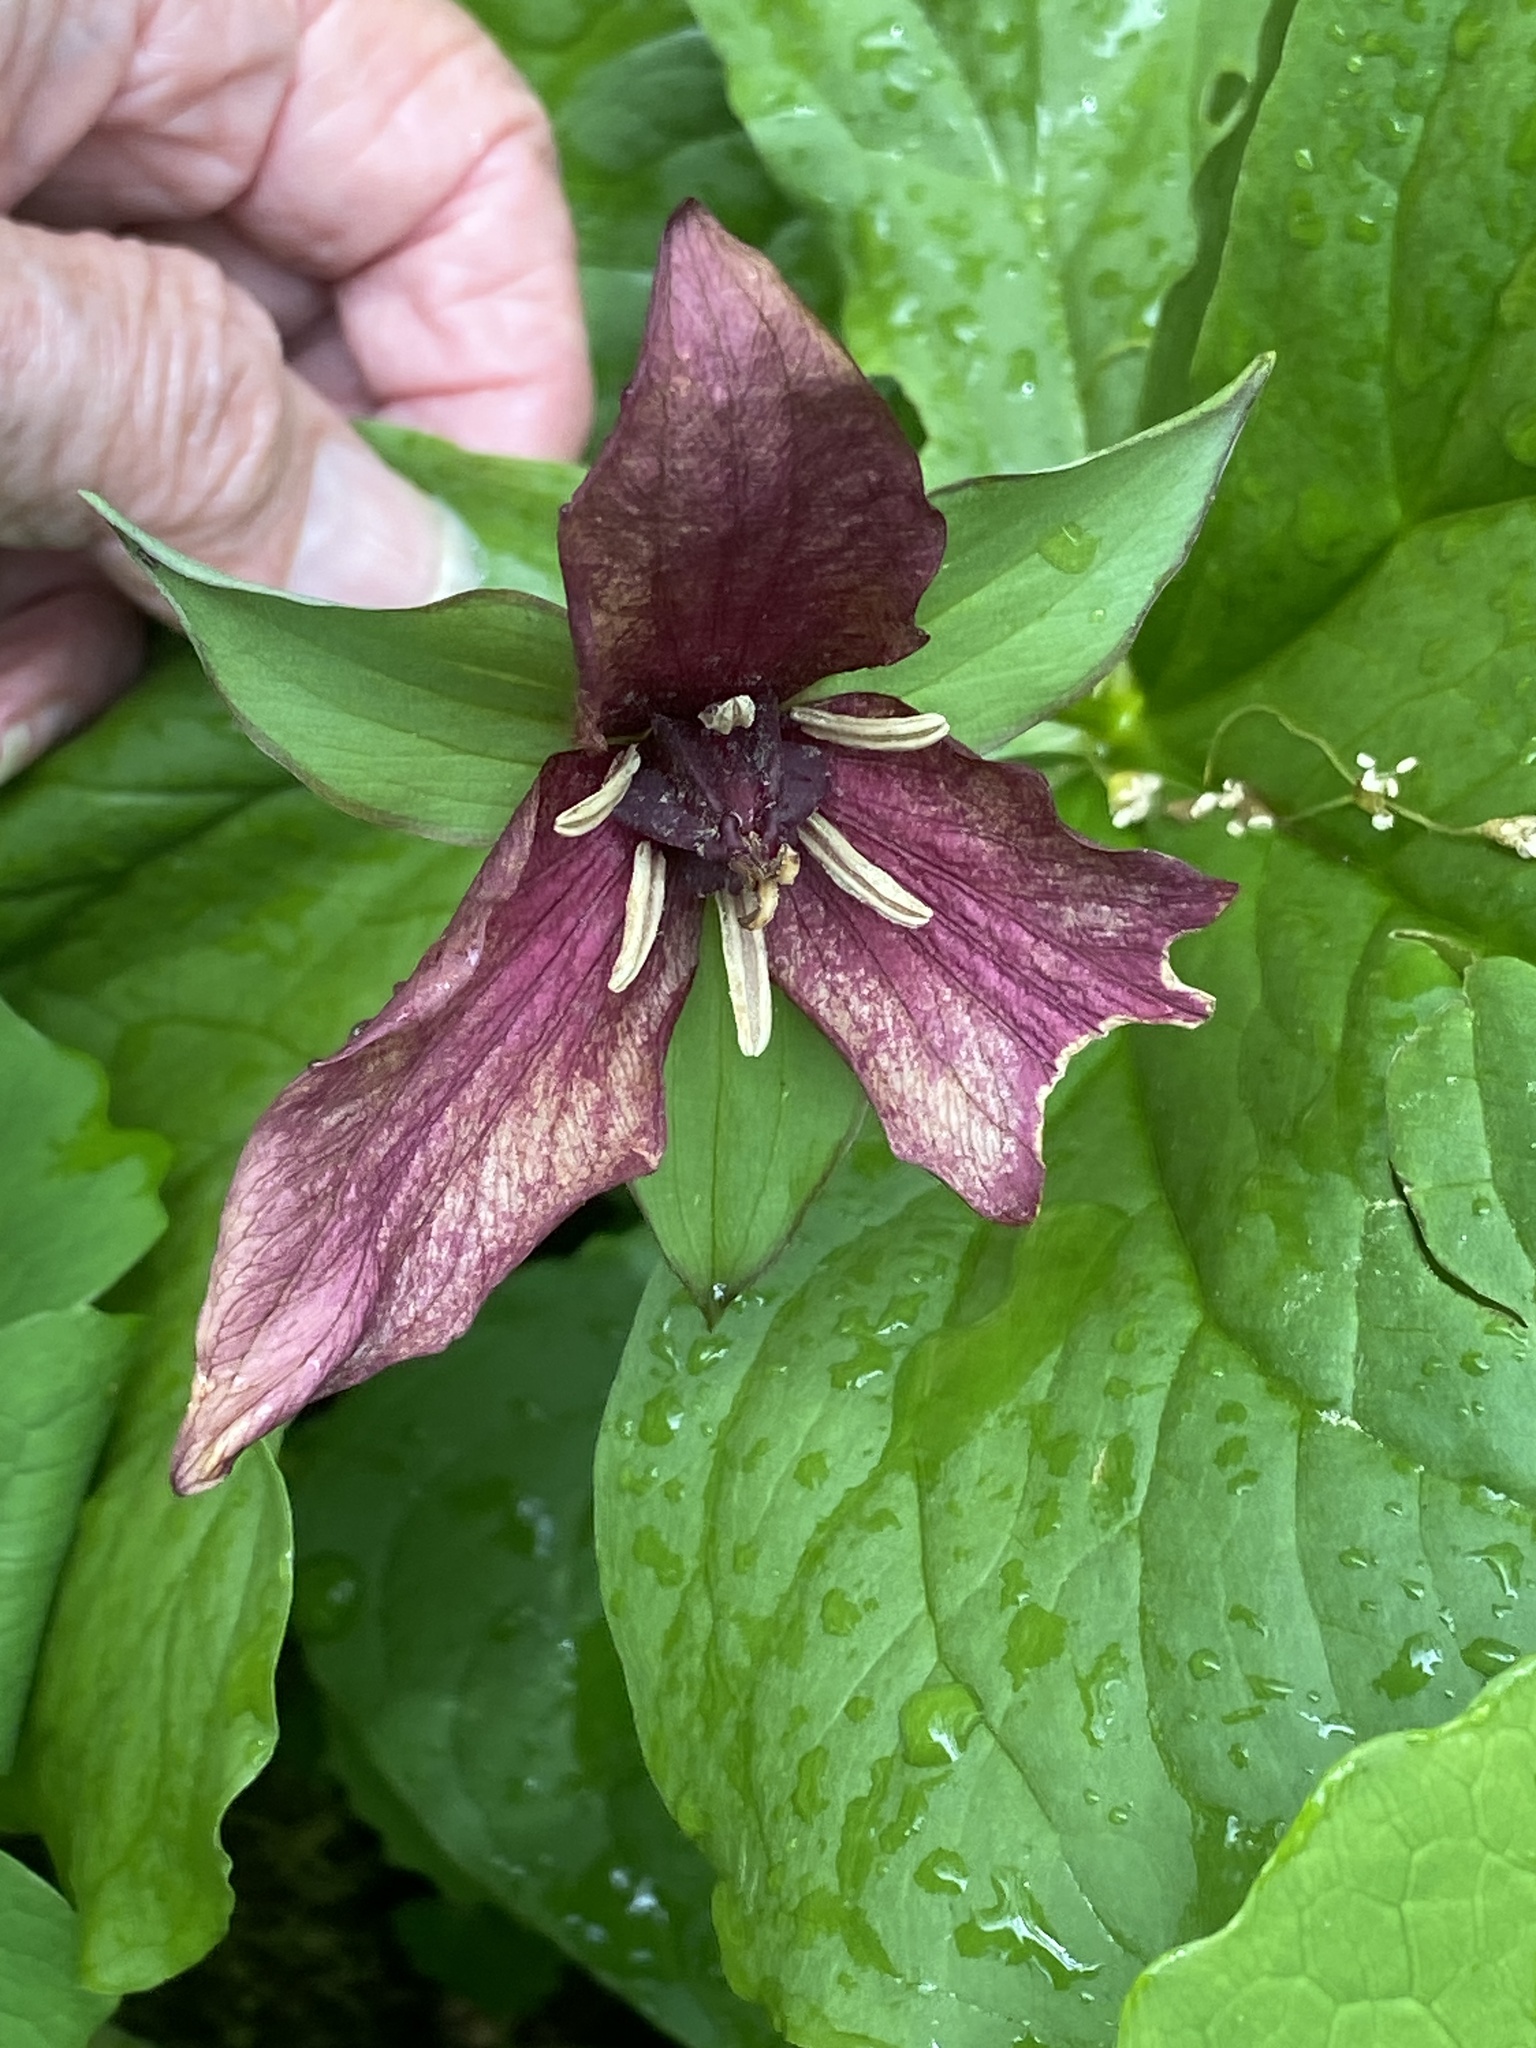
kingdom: Plantae
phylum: Tracheophyta
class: Liliopsida
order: Liliales
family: Melanthiaceae
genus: Trillium
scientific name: Trillium erectum
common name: Purple trillium
